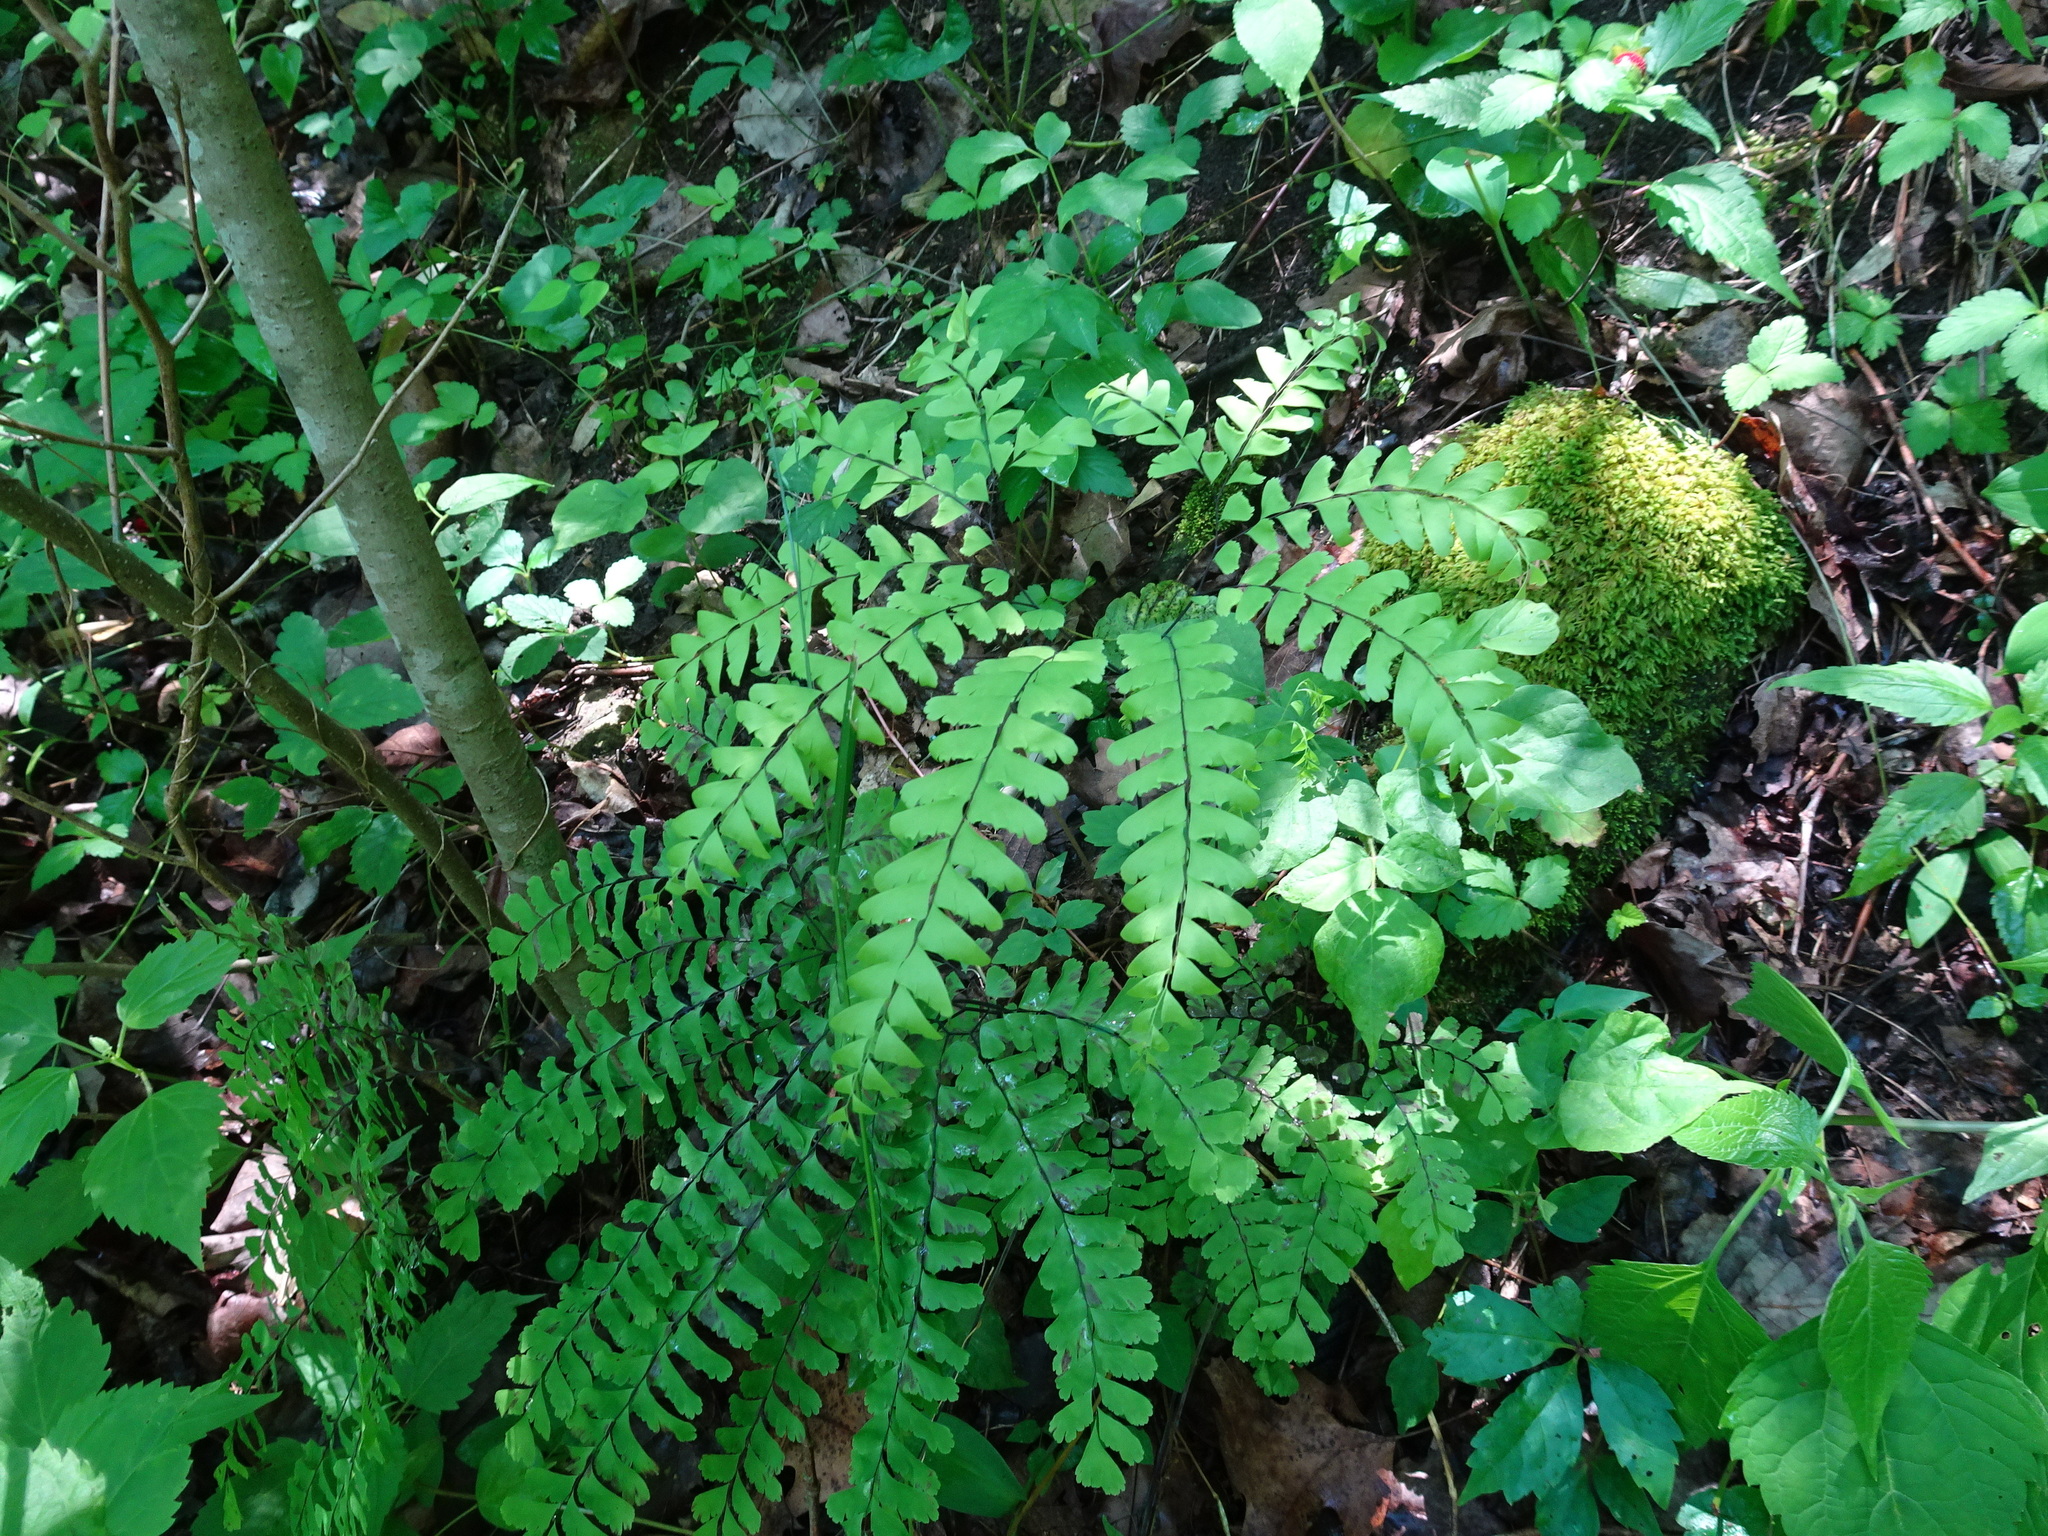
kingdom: Plantae
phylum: Tracheophyta
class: Polypodiopsida
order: Polypodiales
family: Pteridaceae
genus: Adiantum
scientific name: Adiantum pedatum
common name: Five-finger fern
